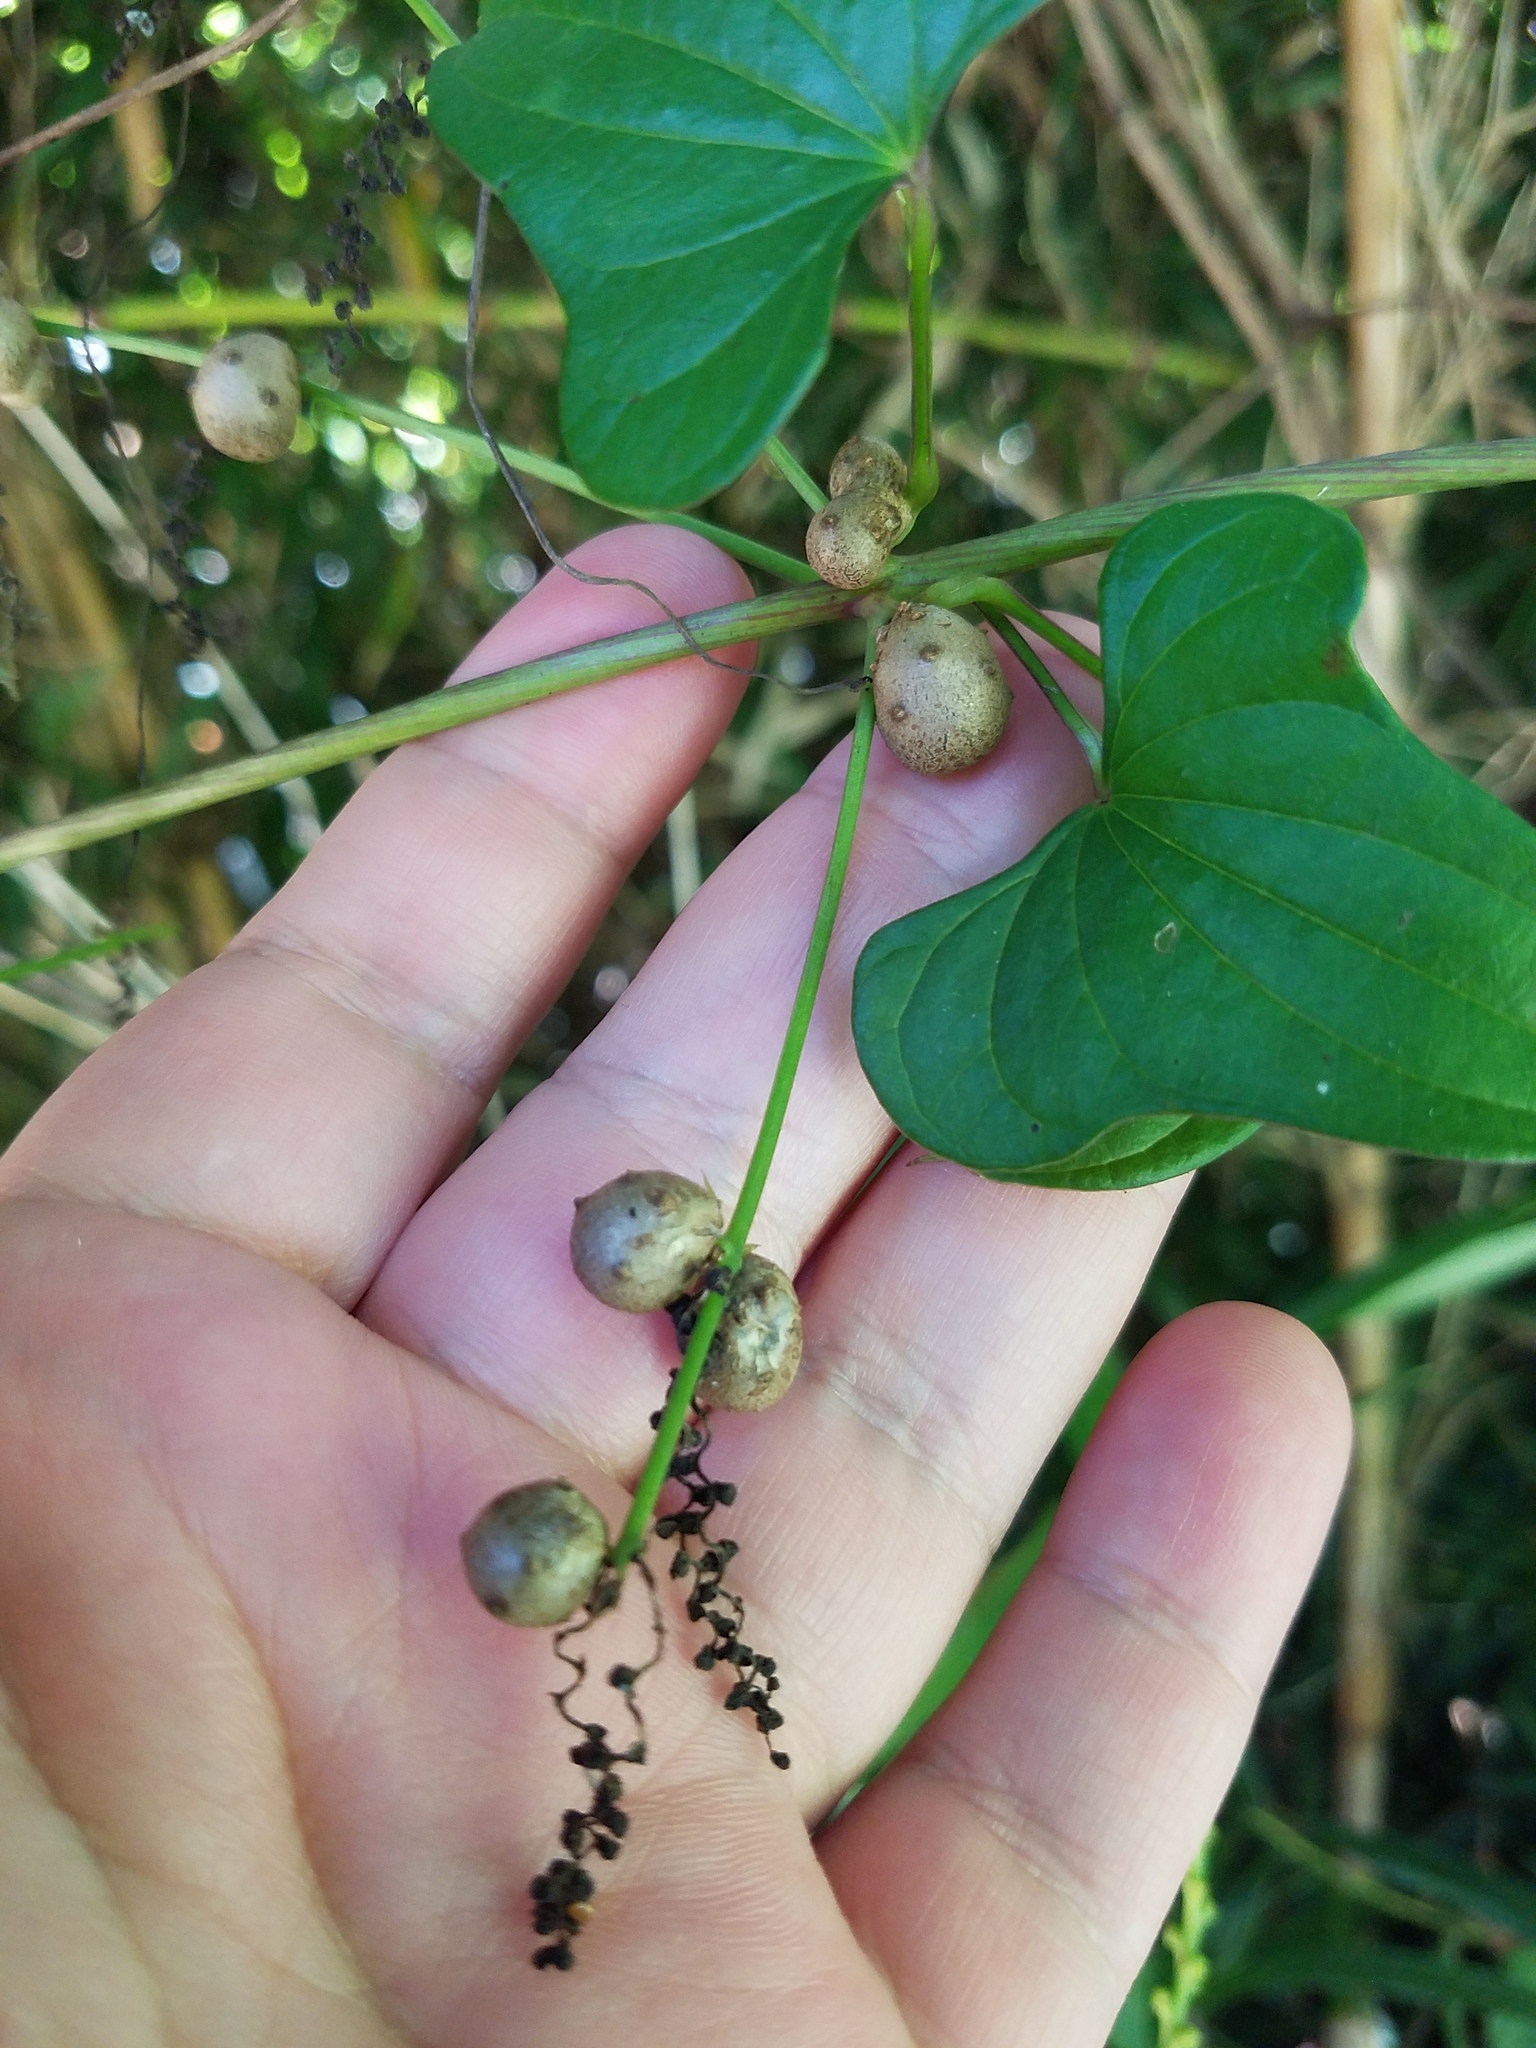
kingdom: Plantae
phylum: Tracheophyta
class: Liliopsida
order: Dioscoreales
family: Dioscoreaceae
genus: Dioscorea
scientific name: Dioscorea polystachya
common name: Chinese yam
